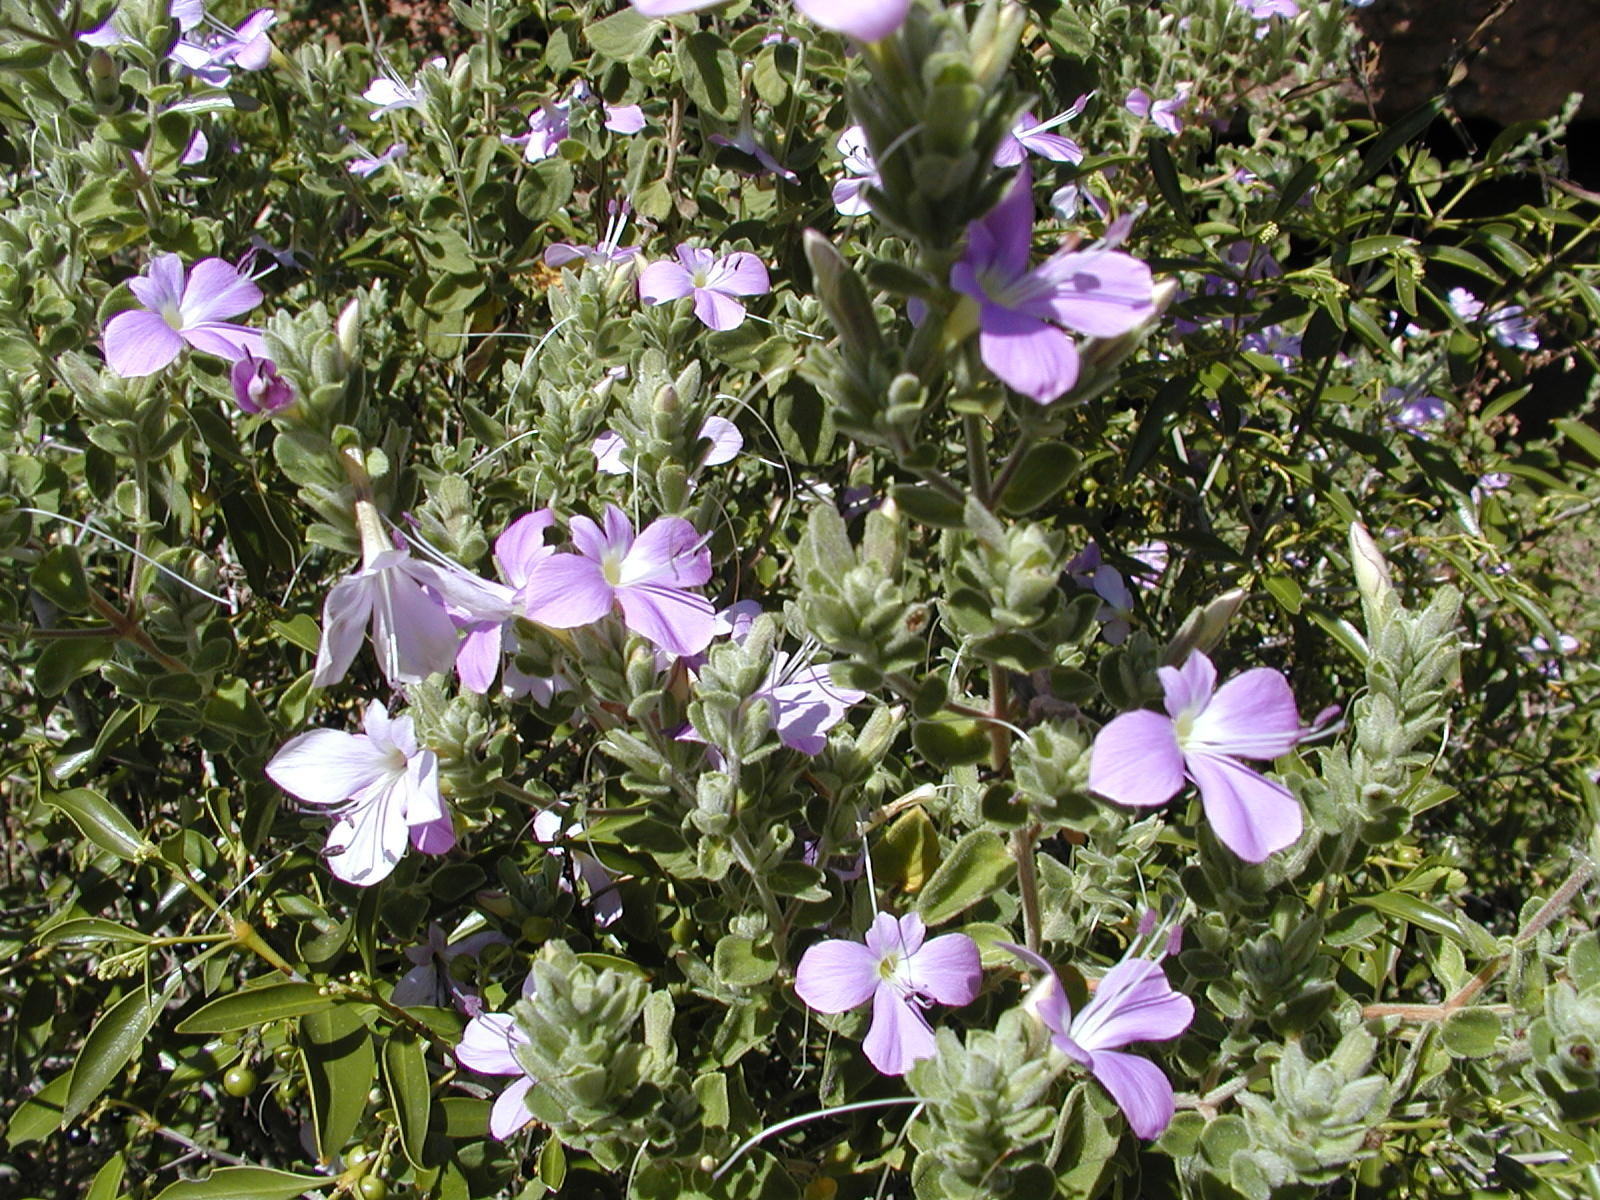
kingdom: Plantae
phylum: Tracheophyta
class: Magnoliopsida
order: Lamiales
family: Acanthaceae
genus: Barleria
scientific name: Barleria obtusa
